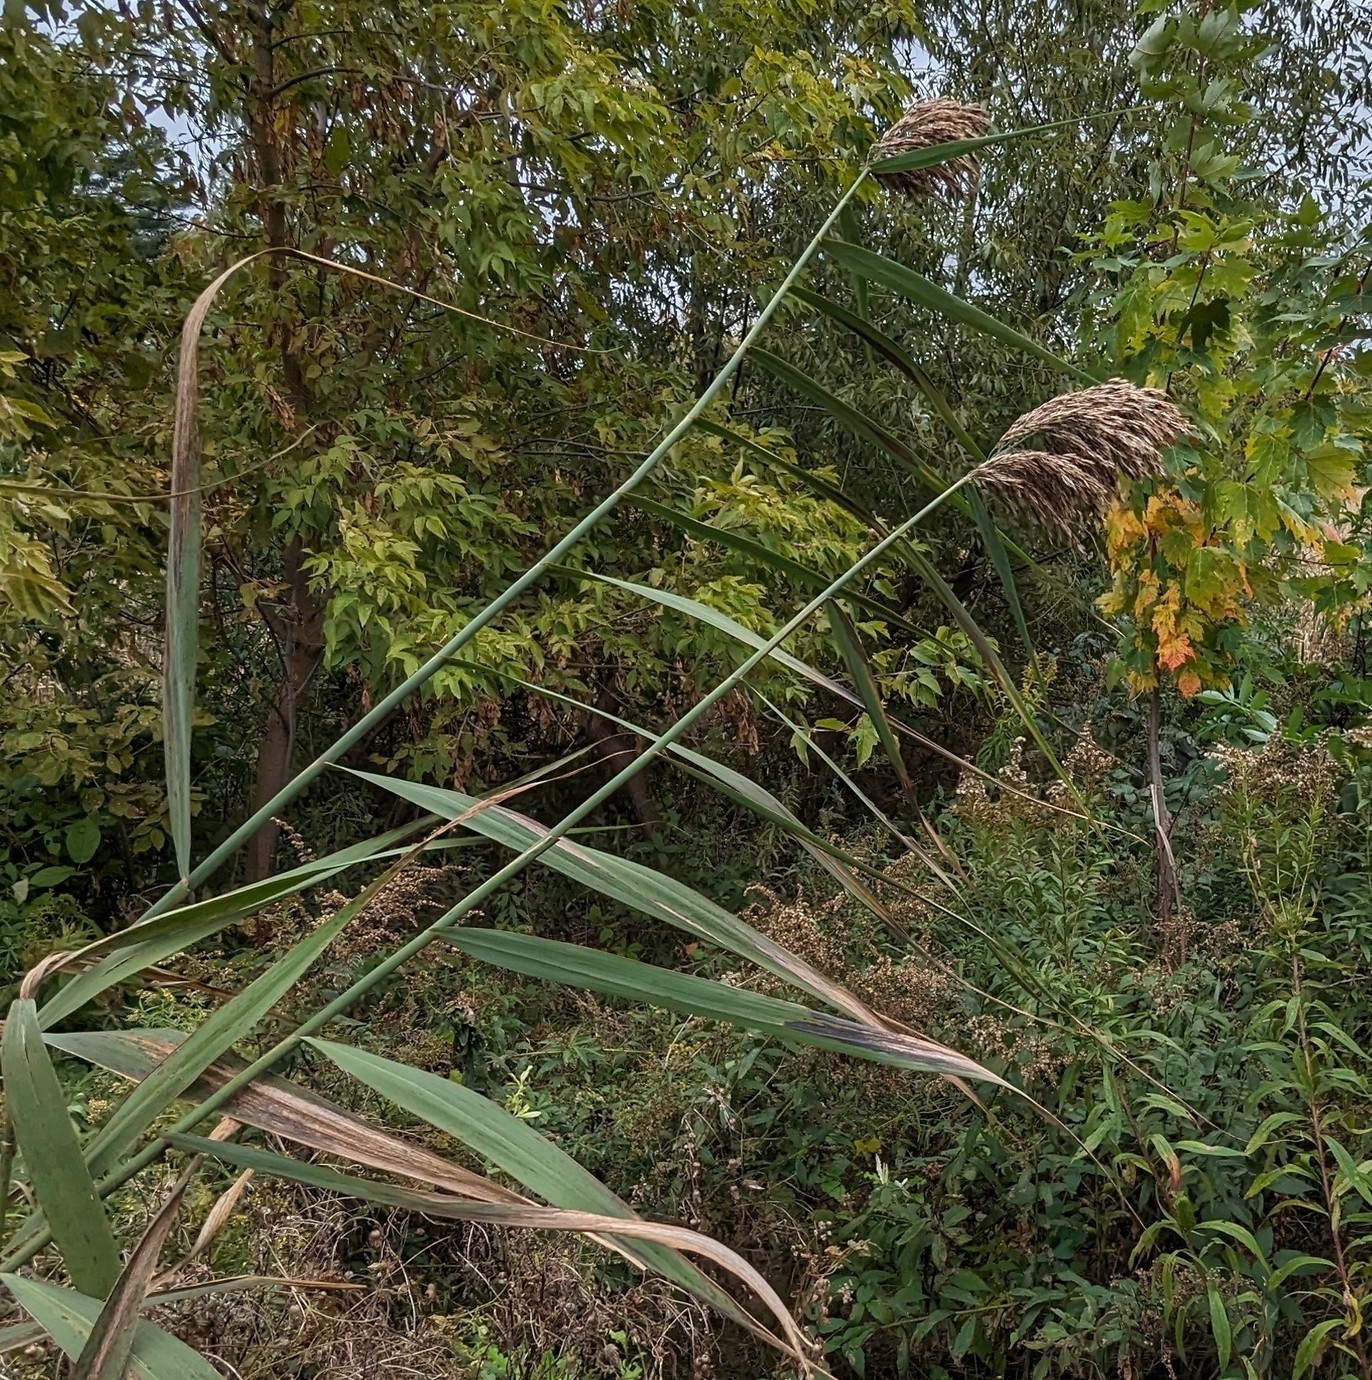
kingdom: Plantae
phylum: Tracheophyta
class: Liliopsida
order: Poales
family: Poaceae
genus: Phragmites
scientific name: Phragmites australis
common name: Common reed
